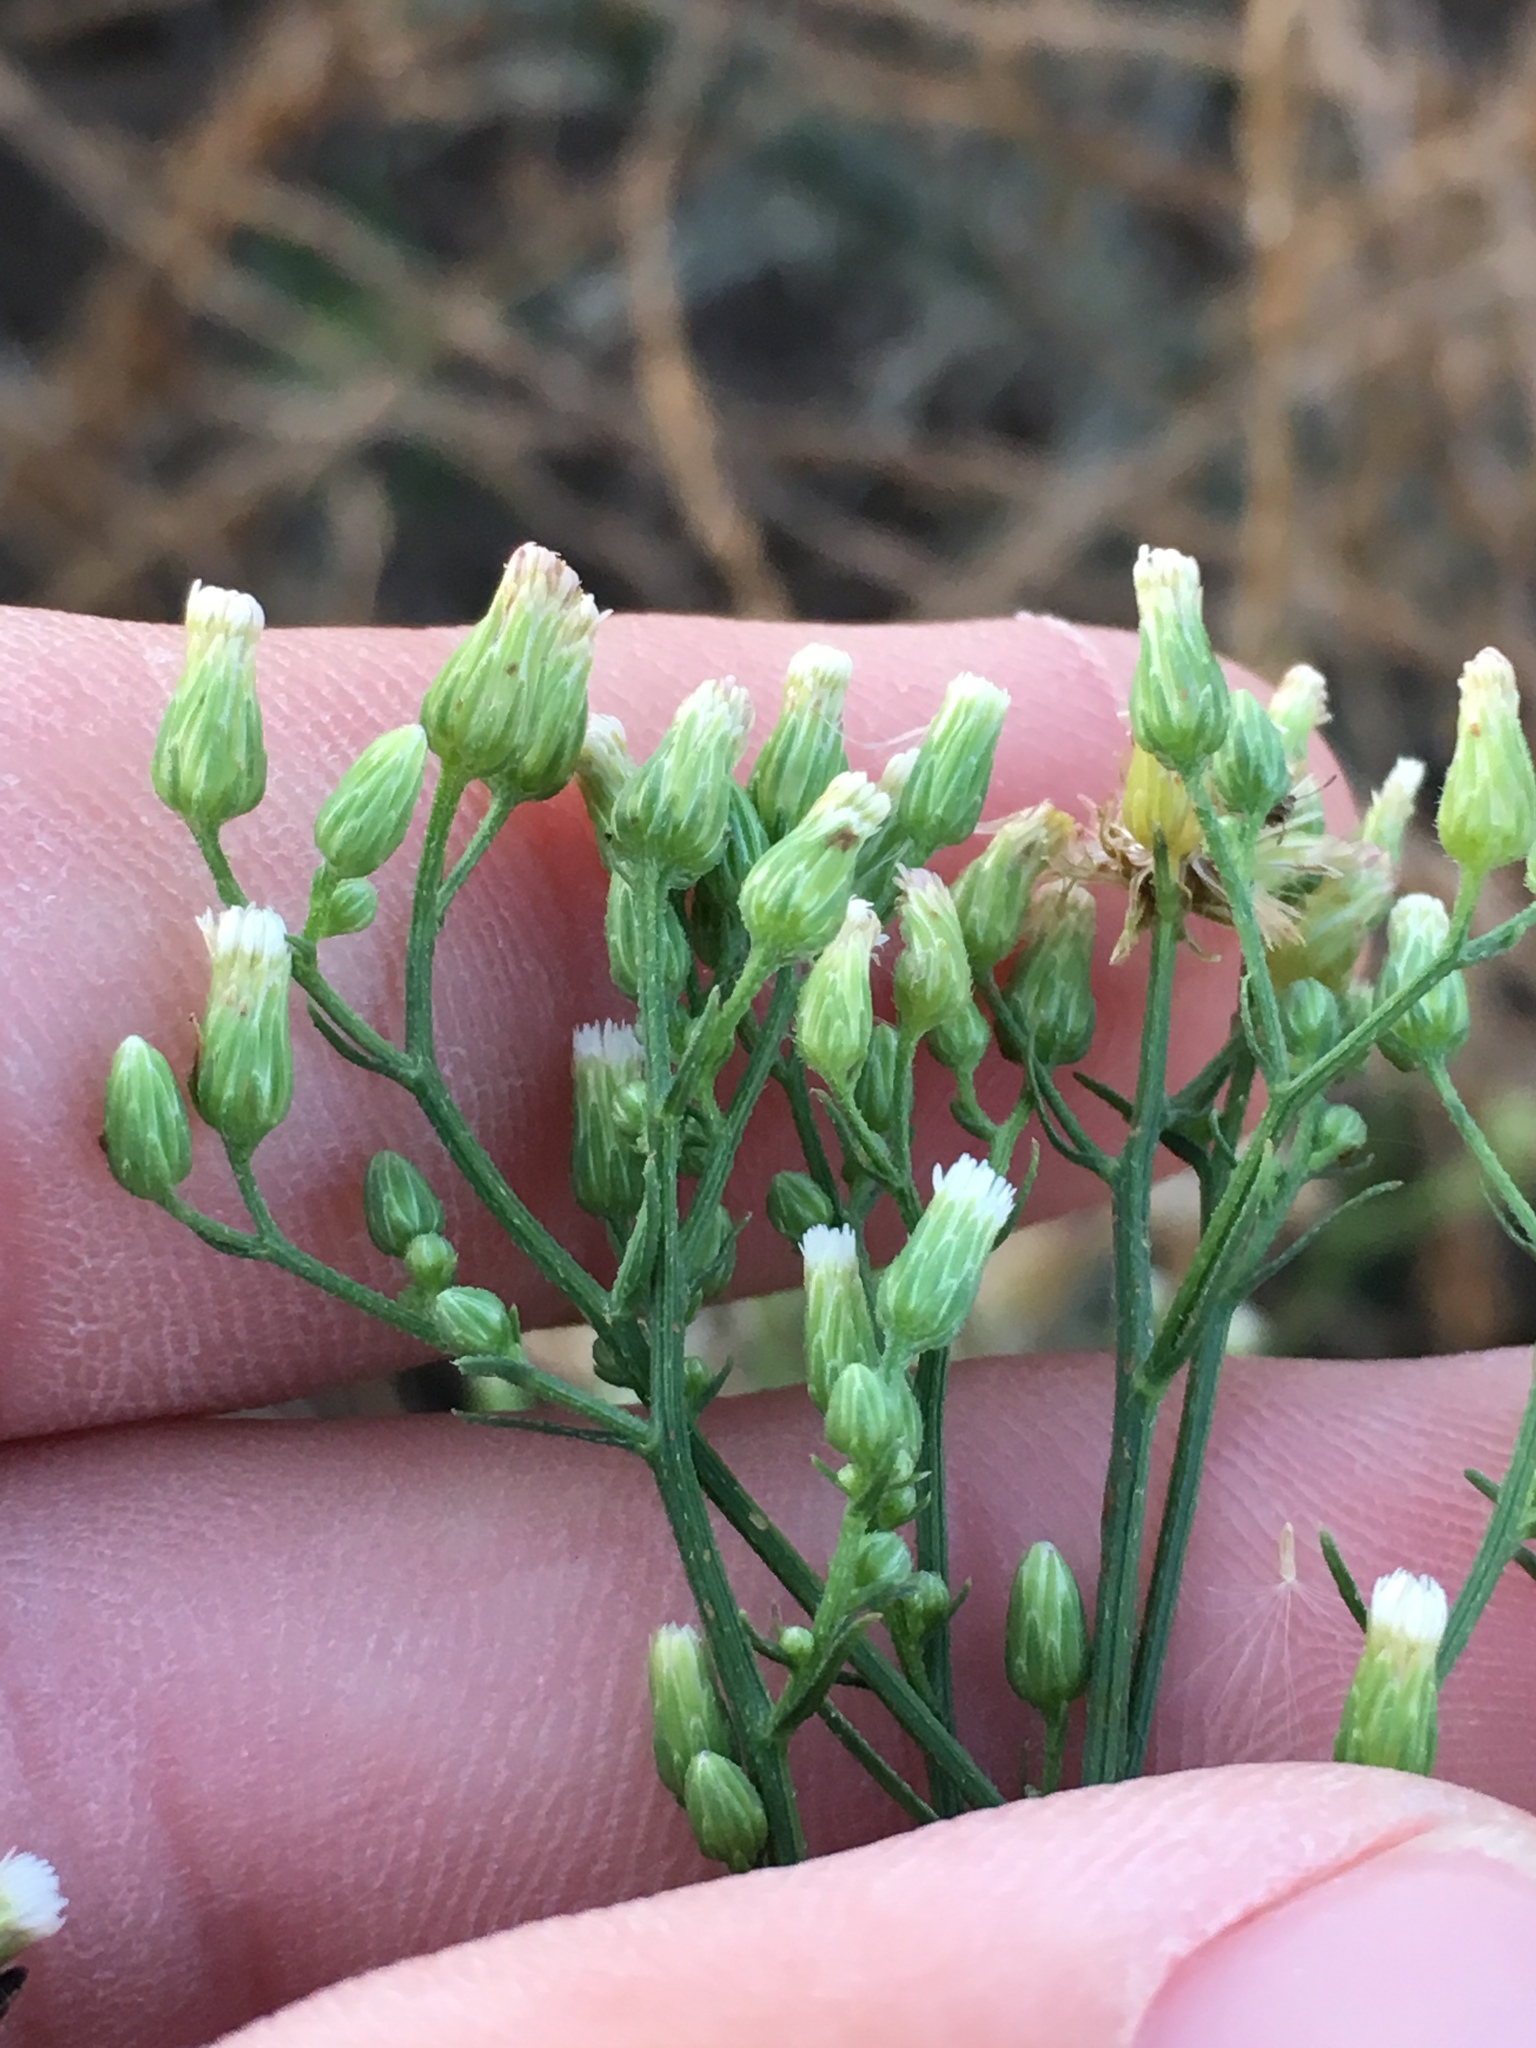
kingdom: Plantae
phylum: Tracheophyta
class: Magnoliopsida
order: Asterales
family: Asteraceae
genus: Erigeron
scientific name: Erigeron canadensis
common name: Canadian fleabane
